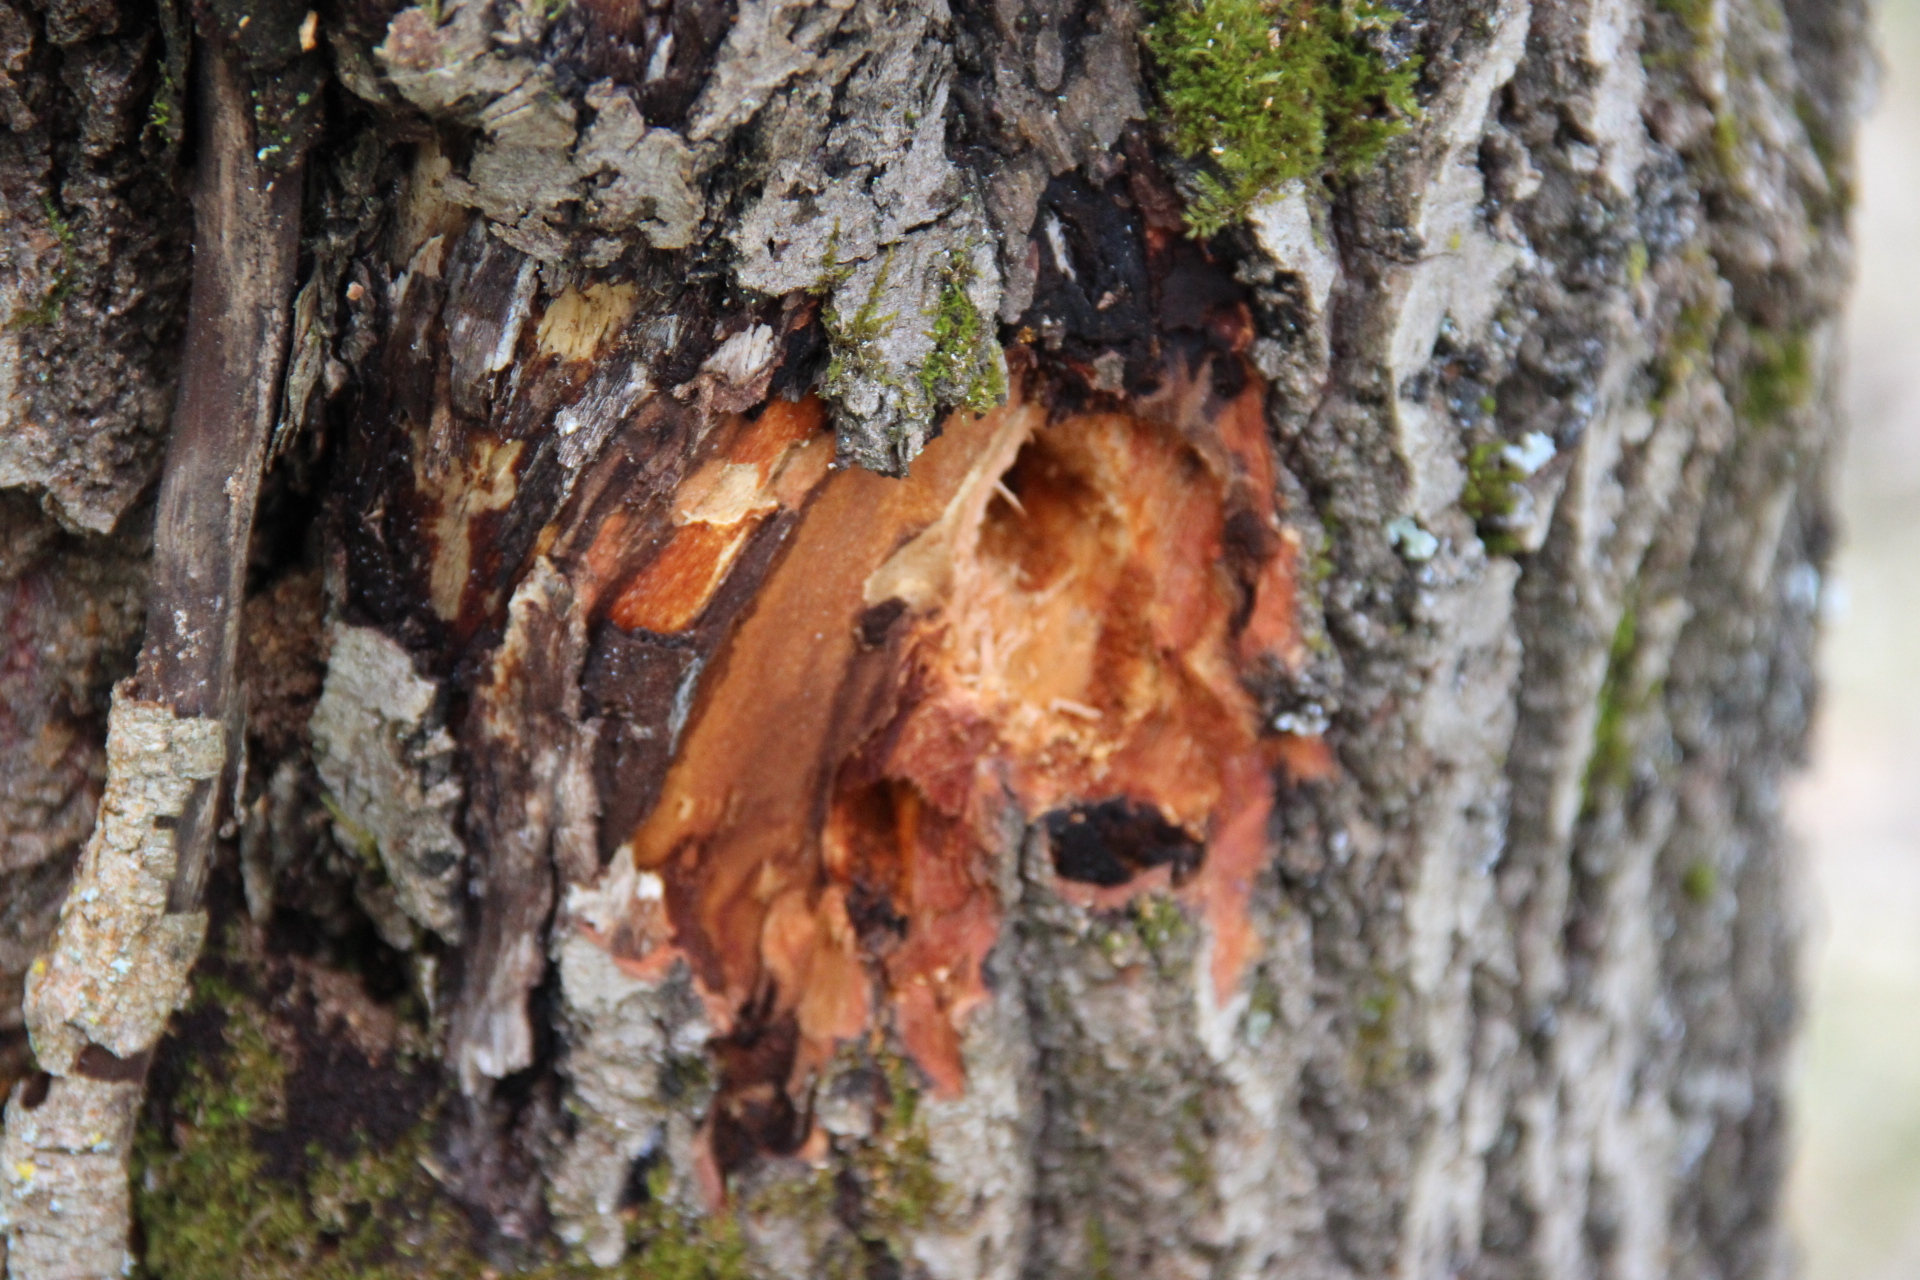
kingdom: Animalia
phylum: Chordata
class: Aves
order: Piciformes
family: Picidae
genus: Dryocopus
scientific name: Dryocopus martius
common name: Black woodpecker
